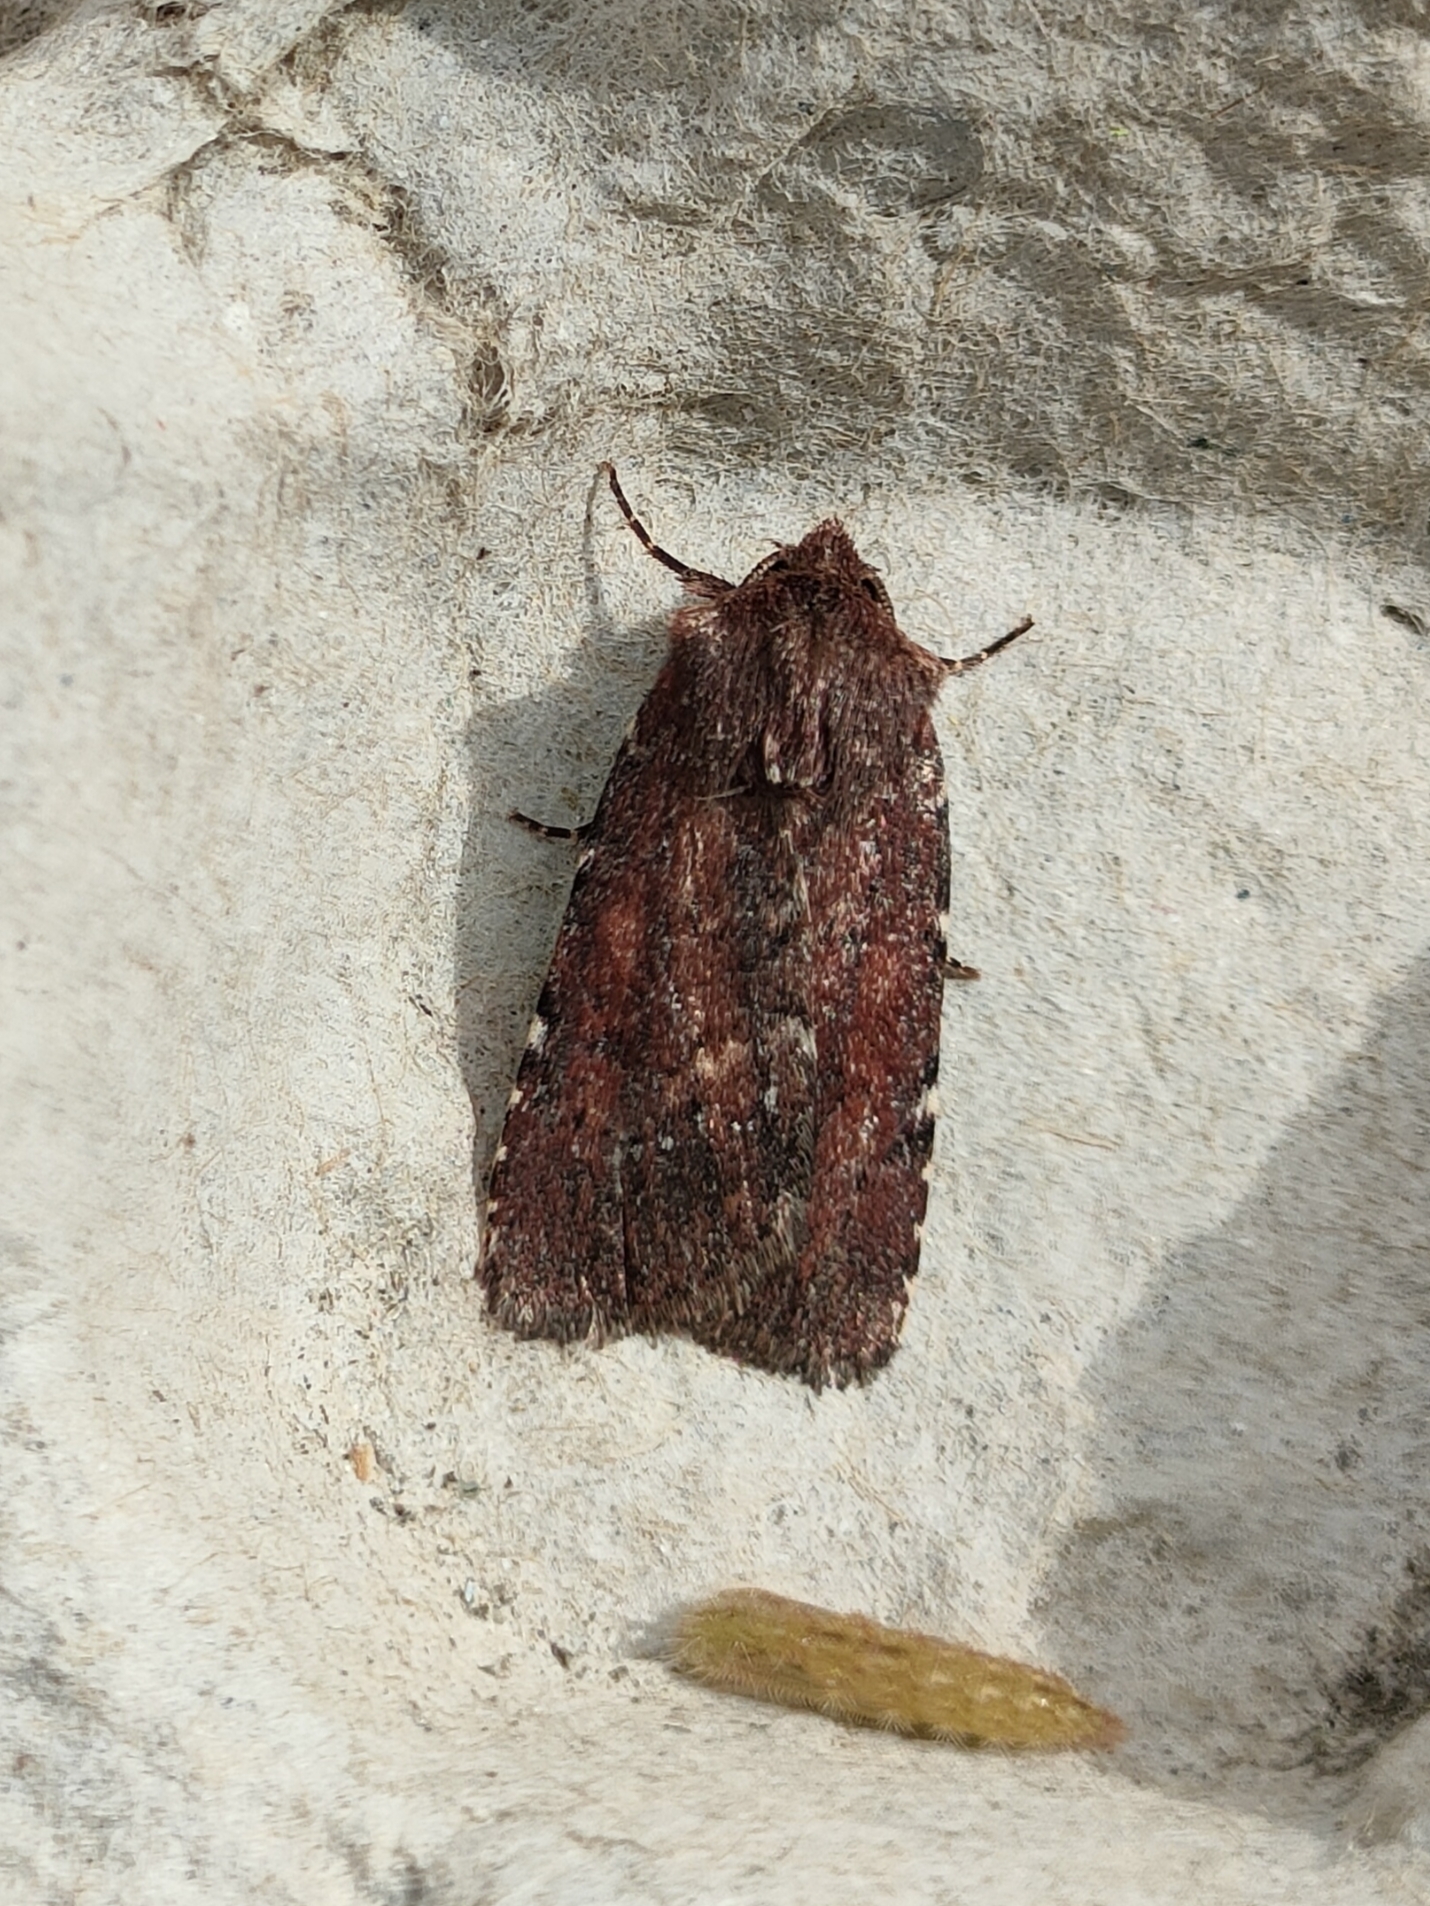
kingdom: Animalia
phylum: Arthropoda
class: Insecta
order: Lepidoptera
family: Noctuidae
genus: Lycophotia
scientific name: Lycophotia erythrina
